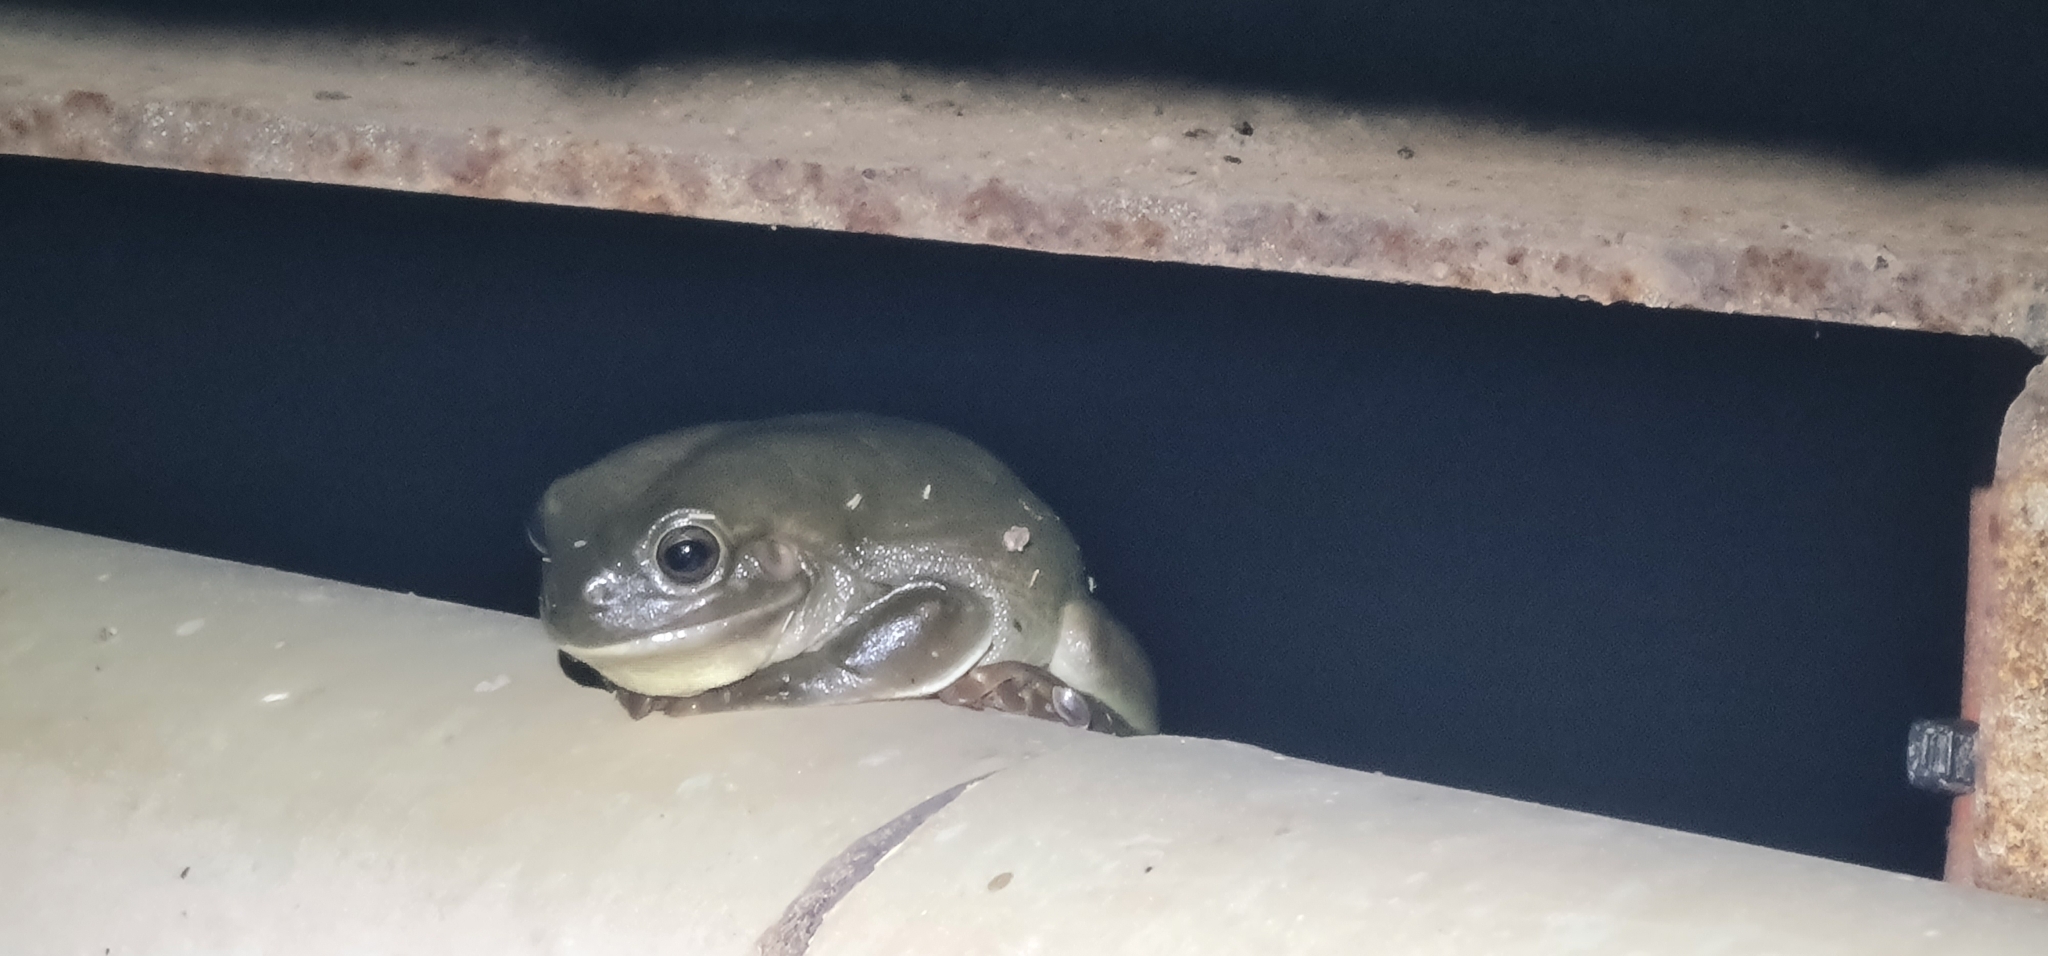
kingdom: Animalia
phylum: Chordata
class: Amphibia
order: Anura
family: Pelodryadidae
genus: Ranoidea
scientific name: Ranoidea caerulea
